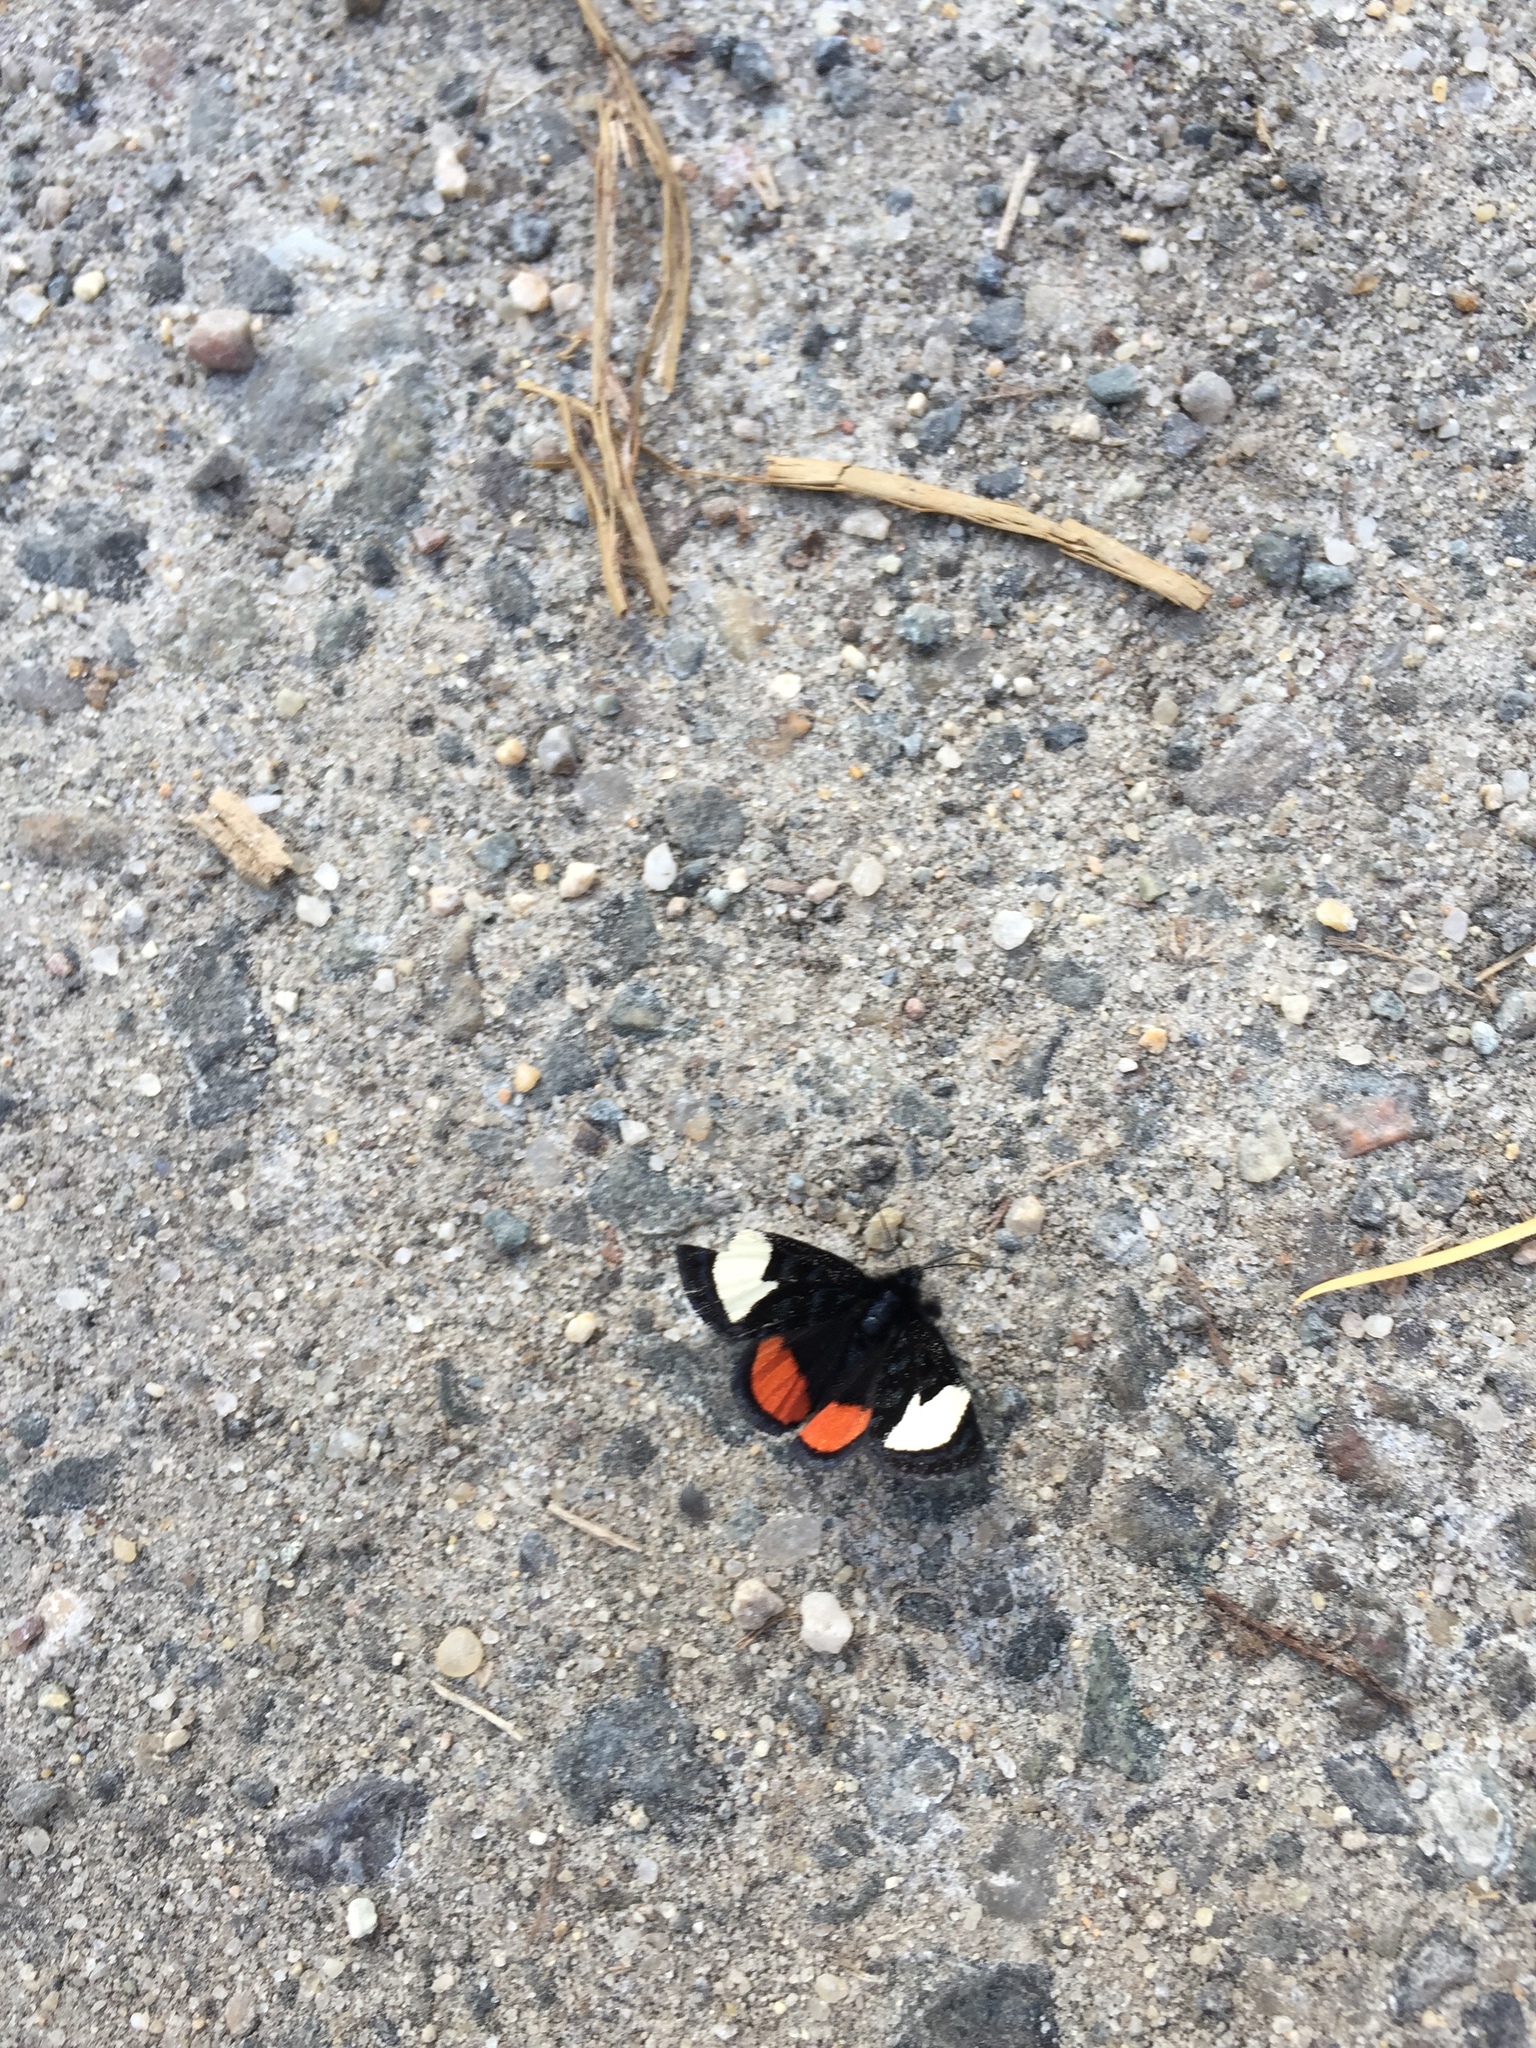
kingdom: Animalia
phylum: Arthropoda
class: Insecta
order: Lepidoptera
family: Noctuidae
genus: Psychomorpha
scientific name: Psychomorpha epimenis
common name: Grapevine epimenis moth
